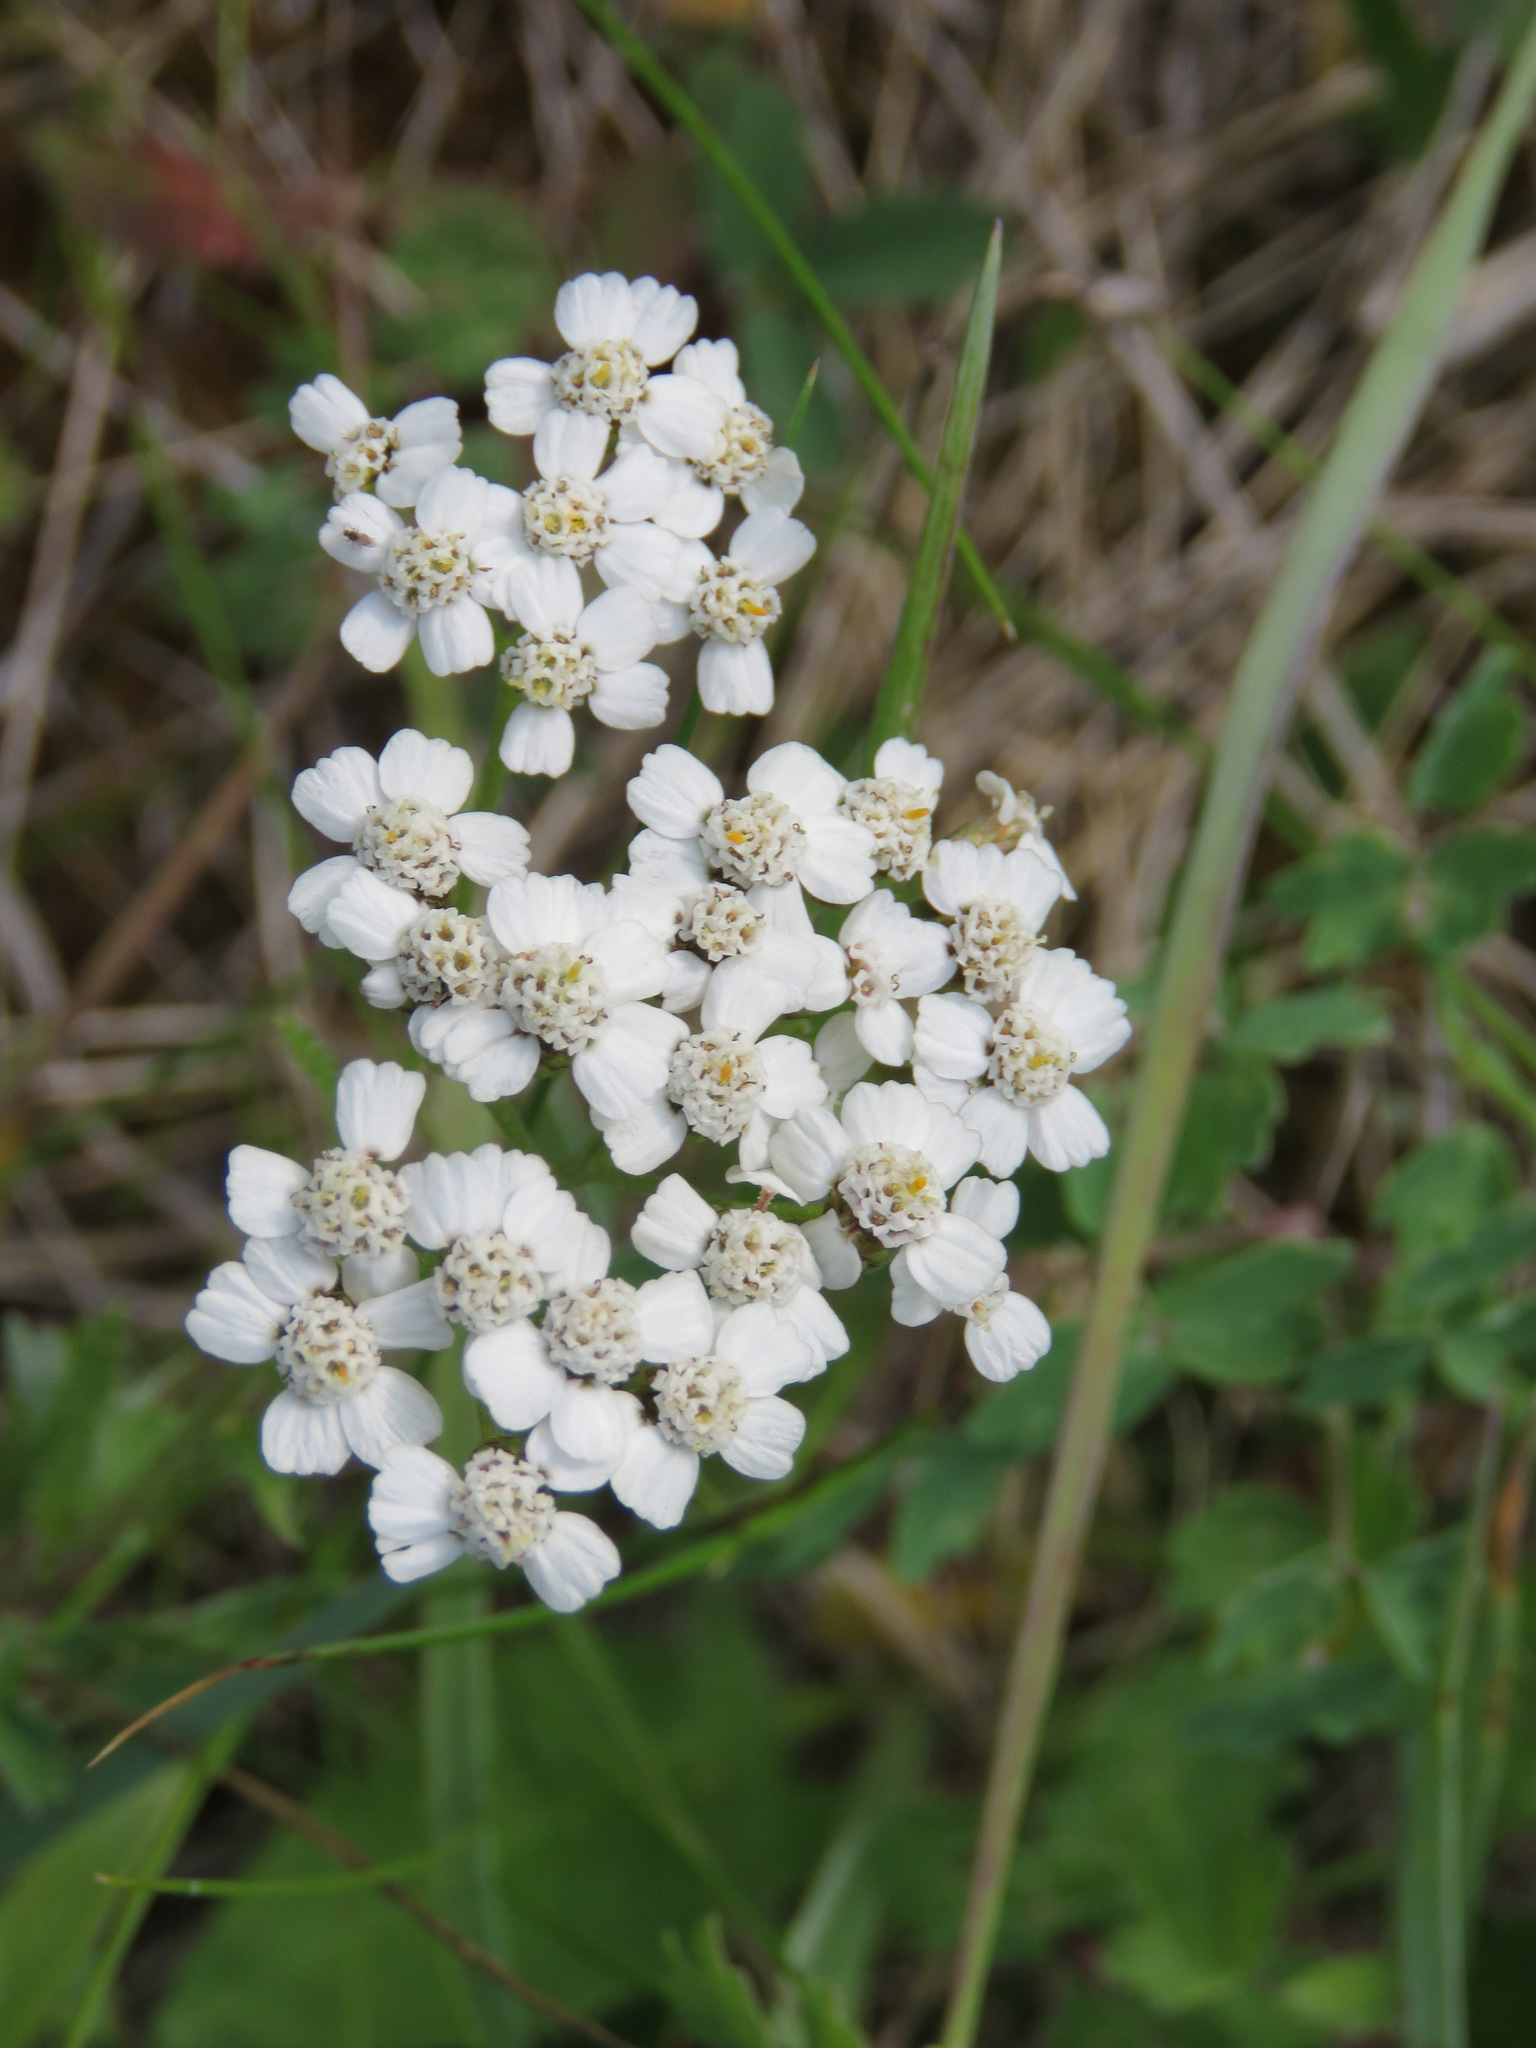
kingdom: Plantae
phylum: Tracheophyta
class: Magnoliopsida
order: Asterales
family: Asteraceae
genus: Achillea
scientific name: Achillea millefolium
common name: Yarrow
